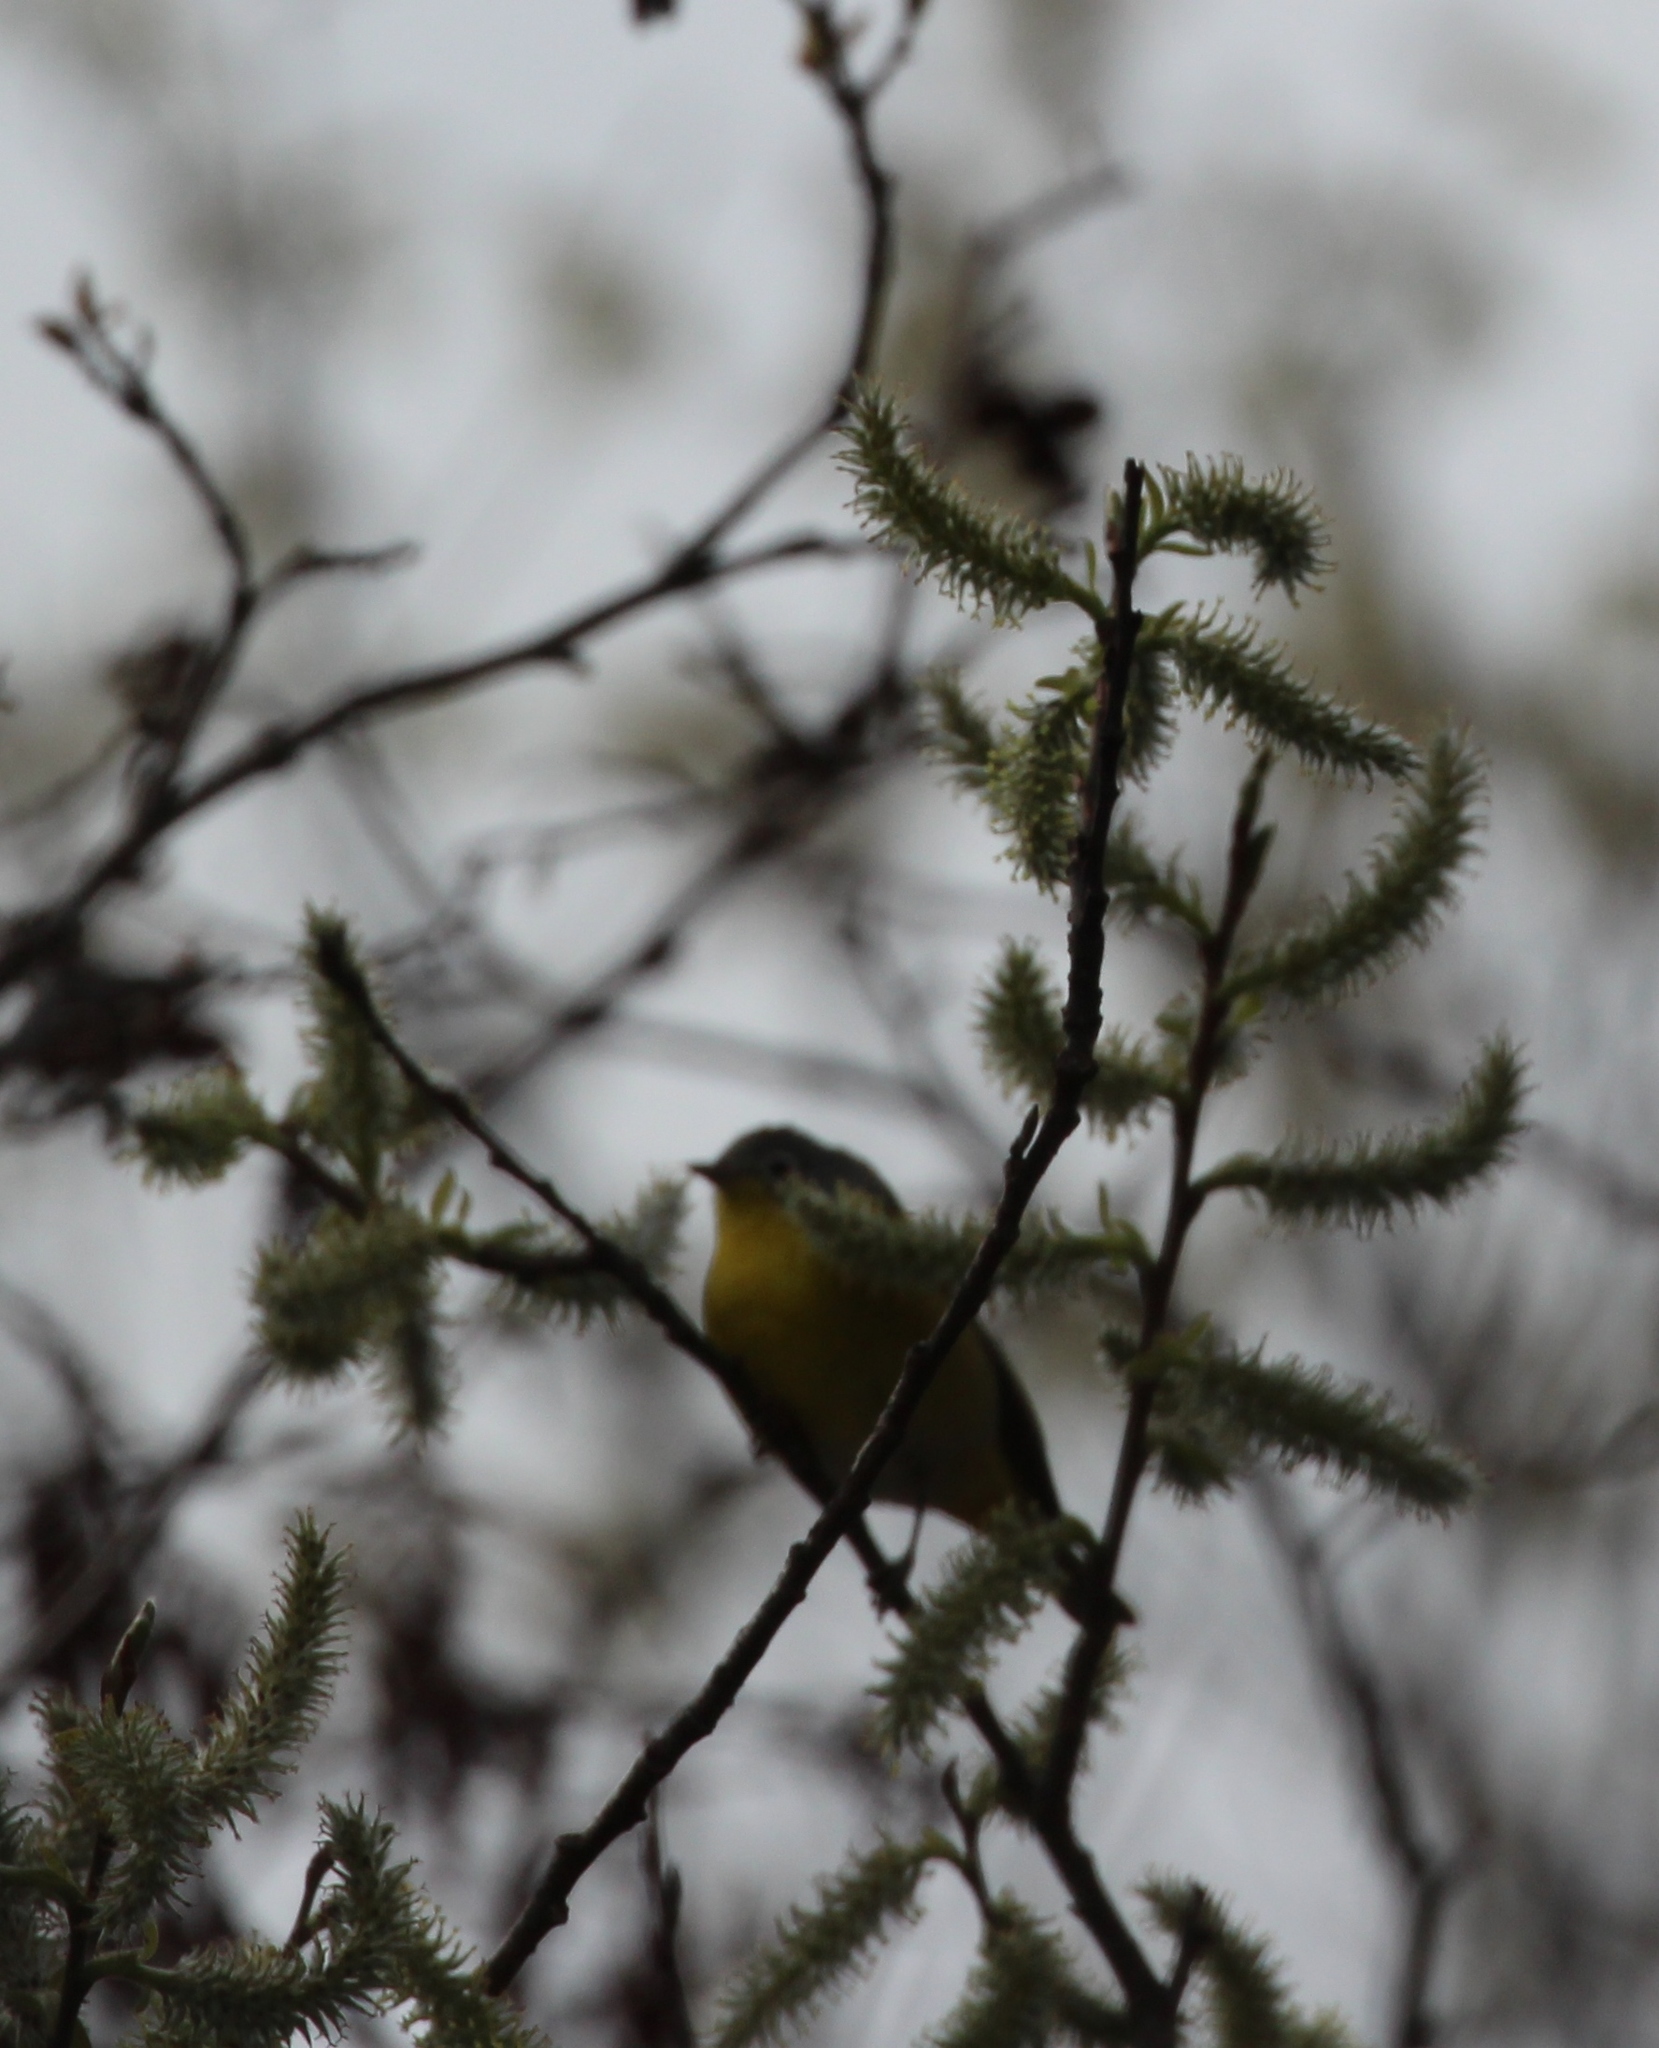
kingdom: Animalia
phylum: Chordata
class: Aves
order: Passeriformes
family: Parulidae
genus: Leiothlypis
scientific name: Leiothlypis ruficapilla
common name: Nashville warbler
